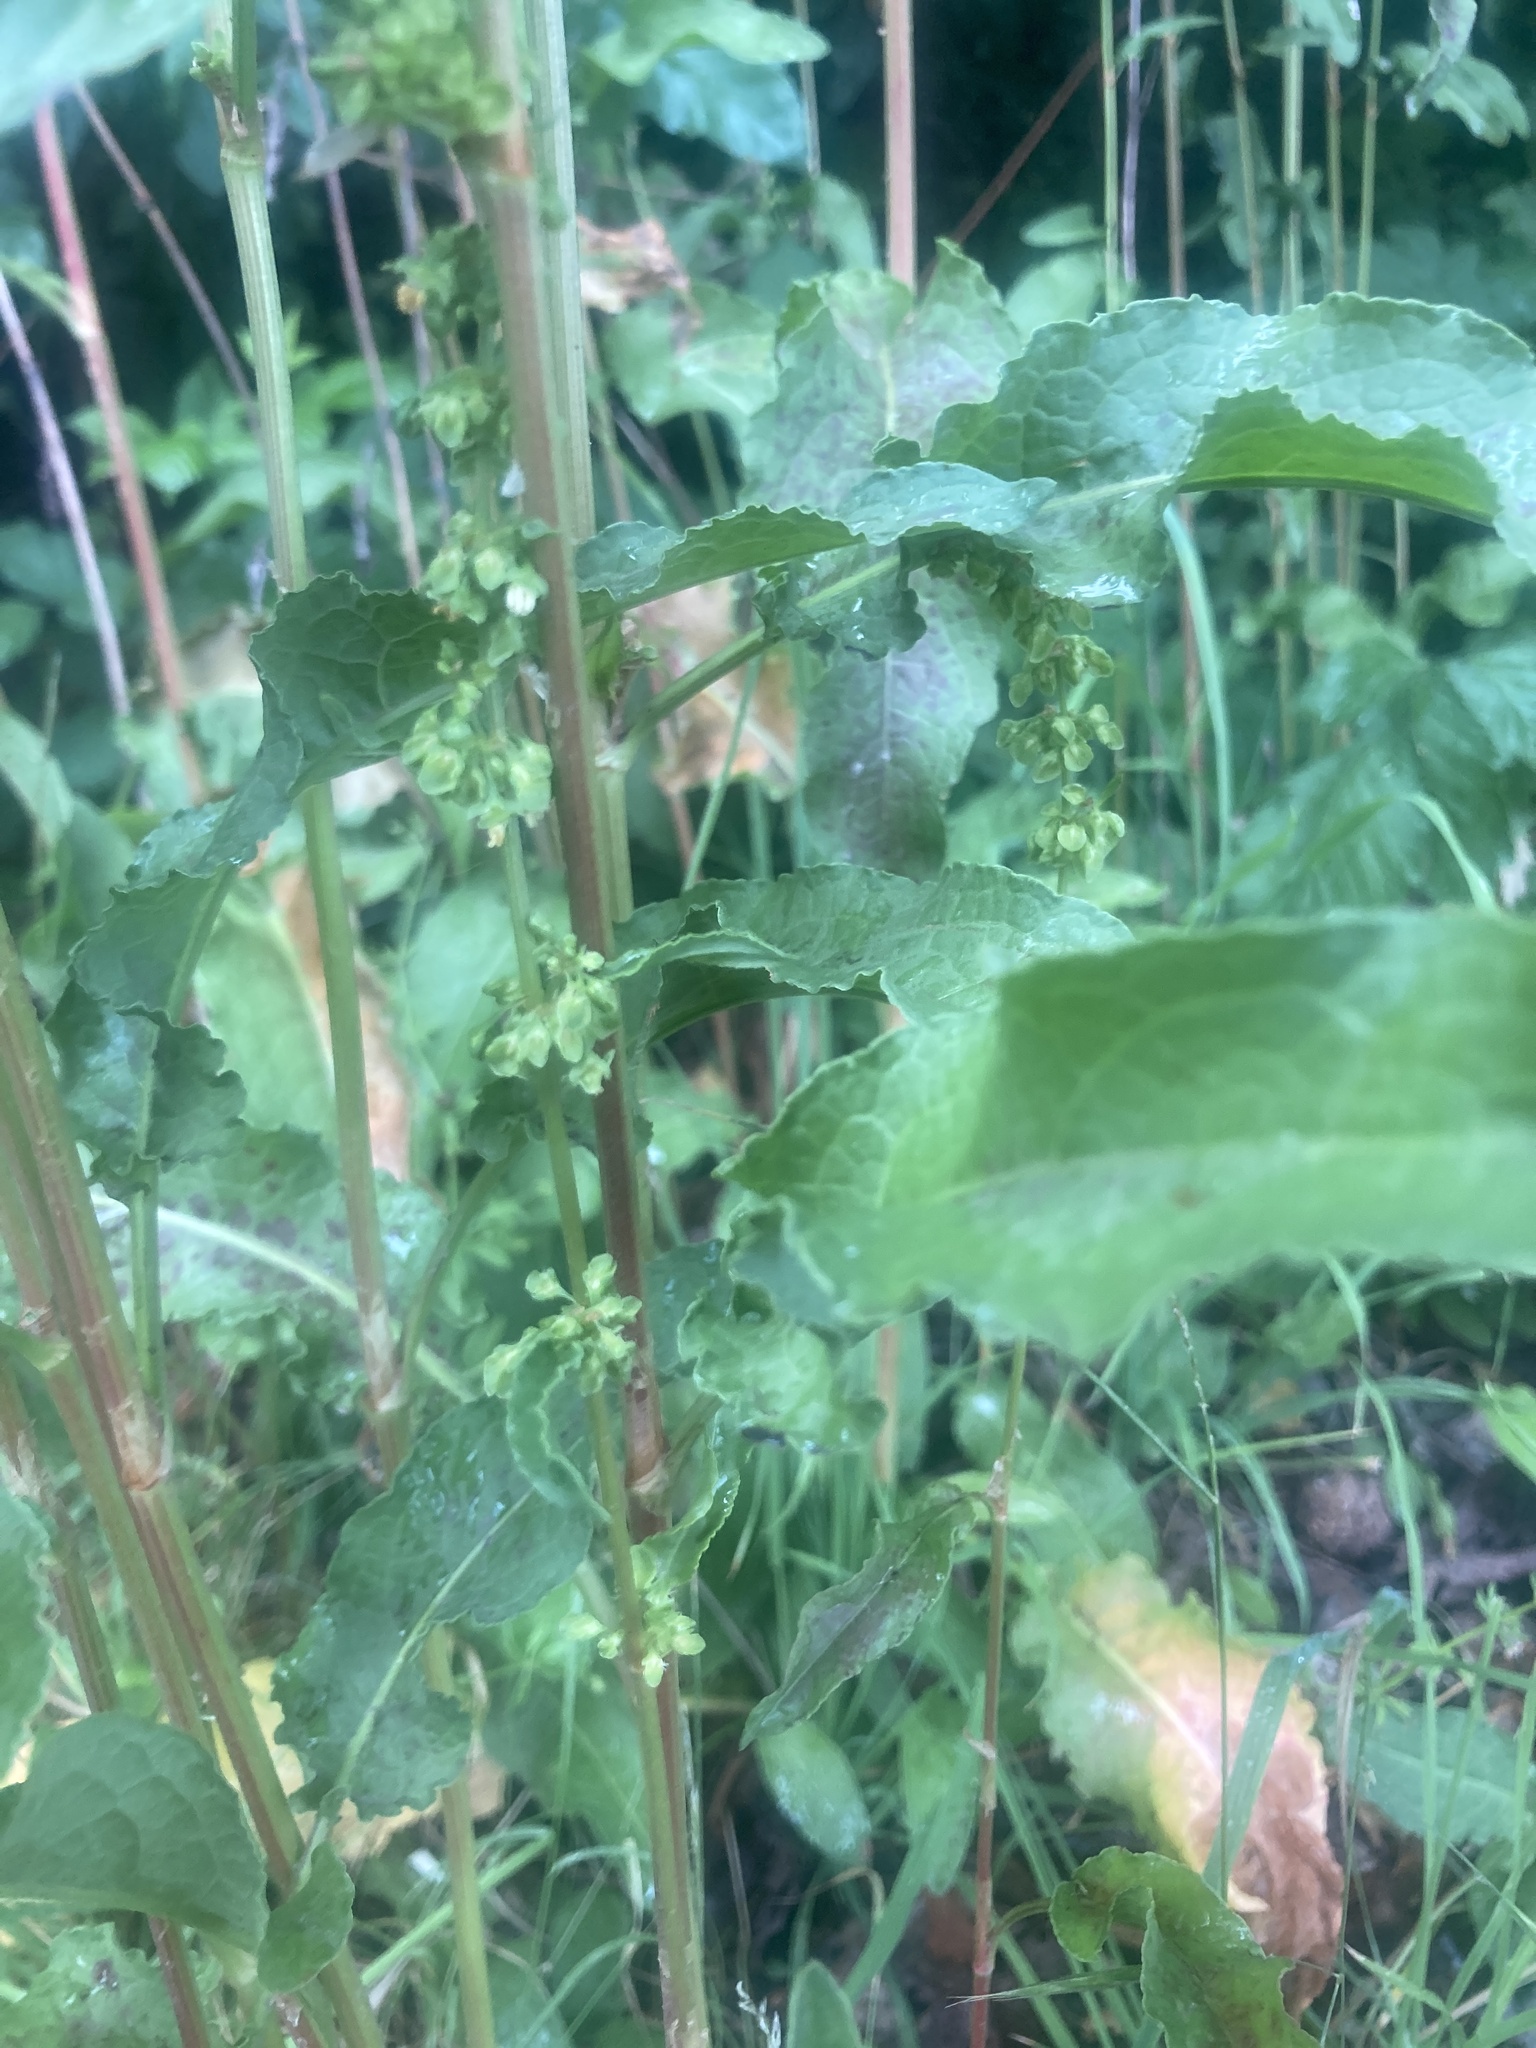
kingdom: Plantae
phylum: Tracheophyta
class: Magnoliopsida
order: Caryophyllales
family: Polygonaceae
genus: Rumex
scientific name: Rumex crispus
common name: Curled dock
